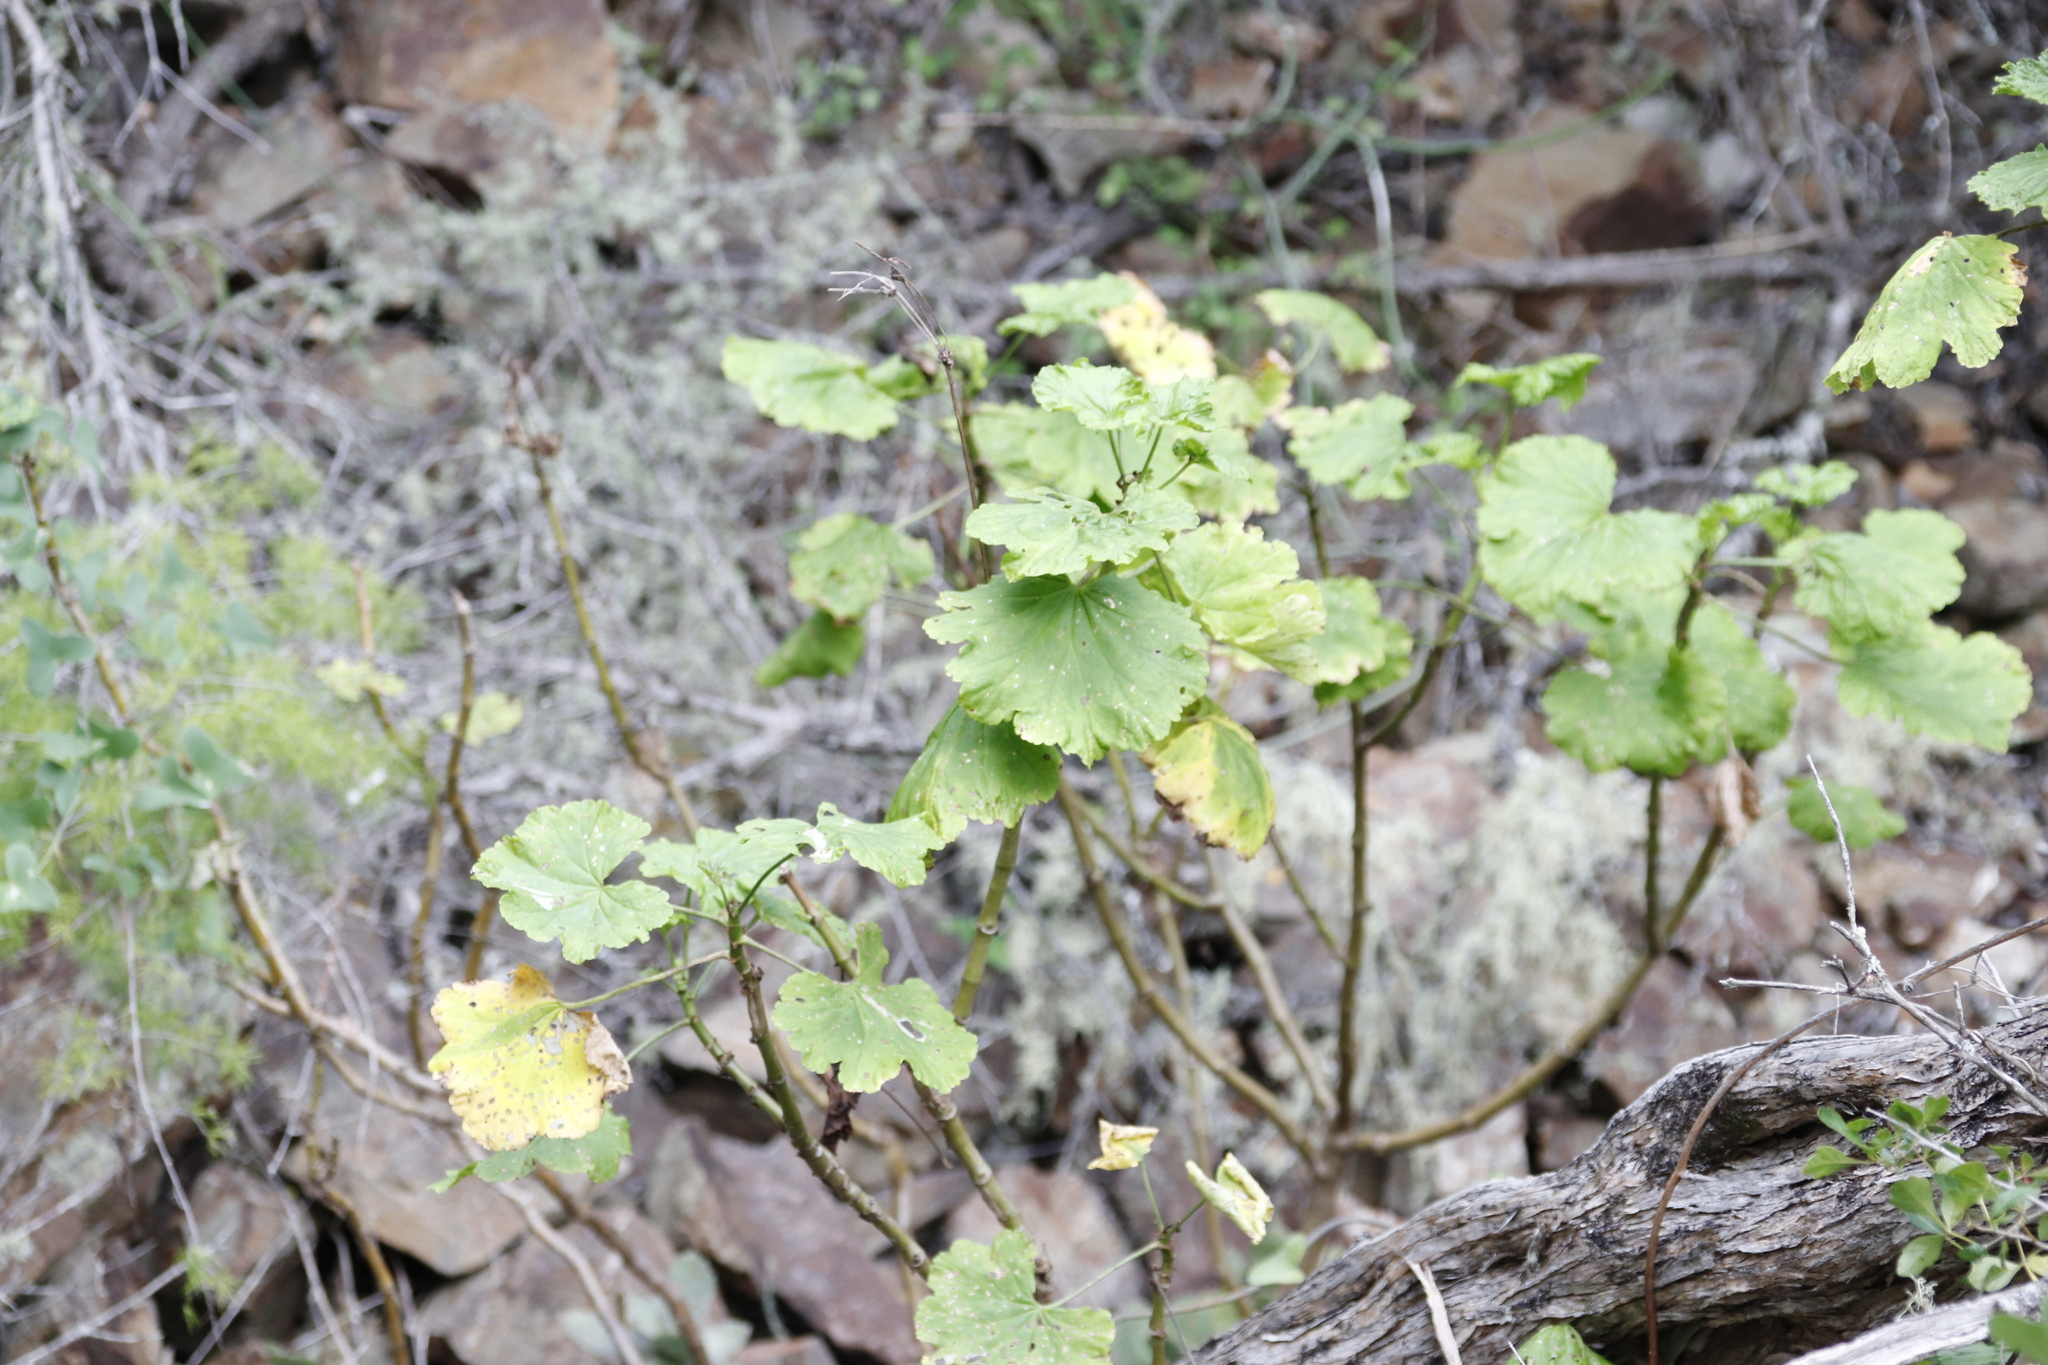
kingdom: Plantae
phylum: Tracheophyta
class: Magnoliopsida
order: Geraniales
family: Geraniaceae
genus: Pelargonium
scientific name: Pelargonium zonale
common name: Horseshoe geranium
